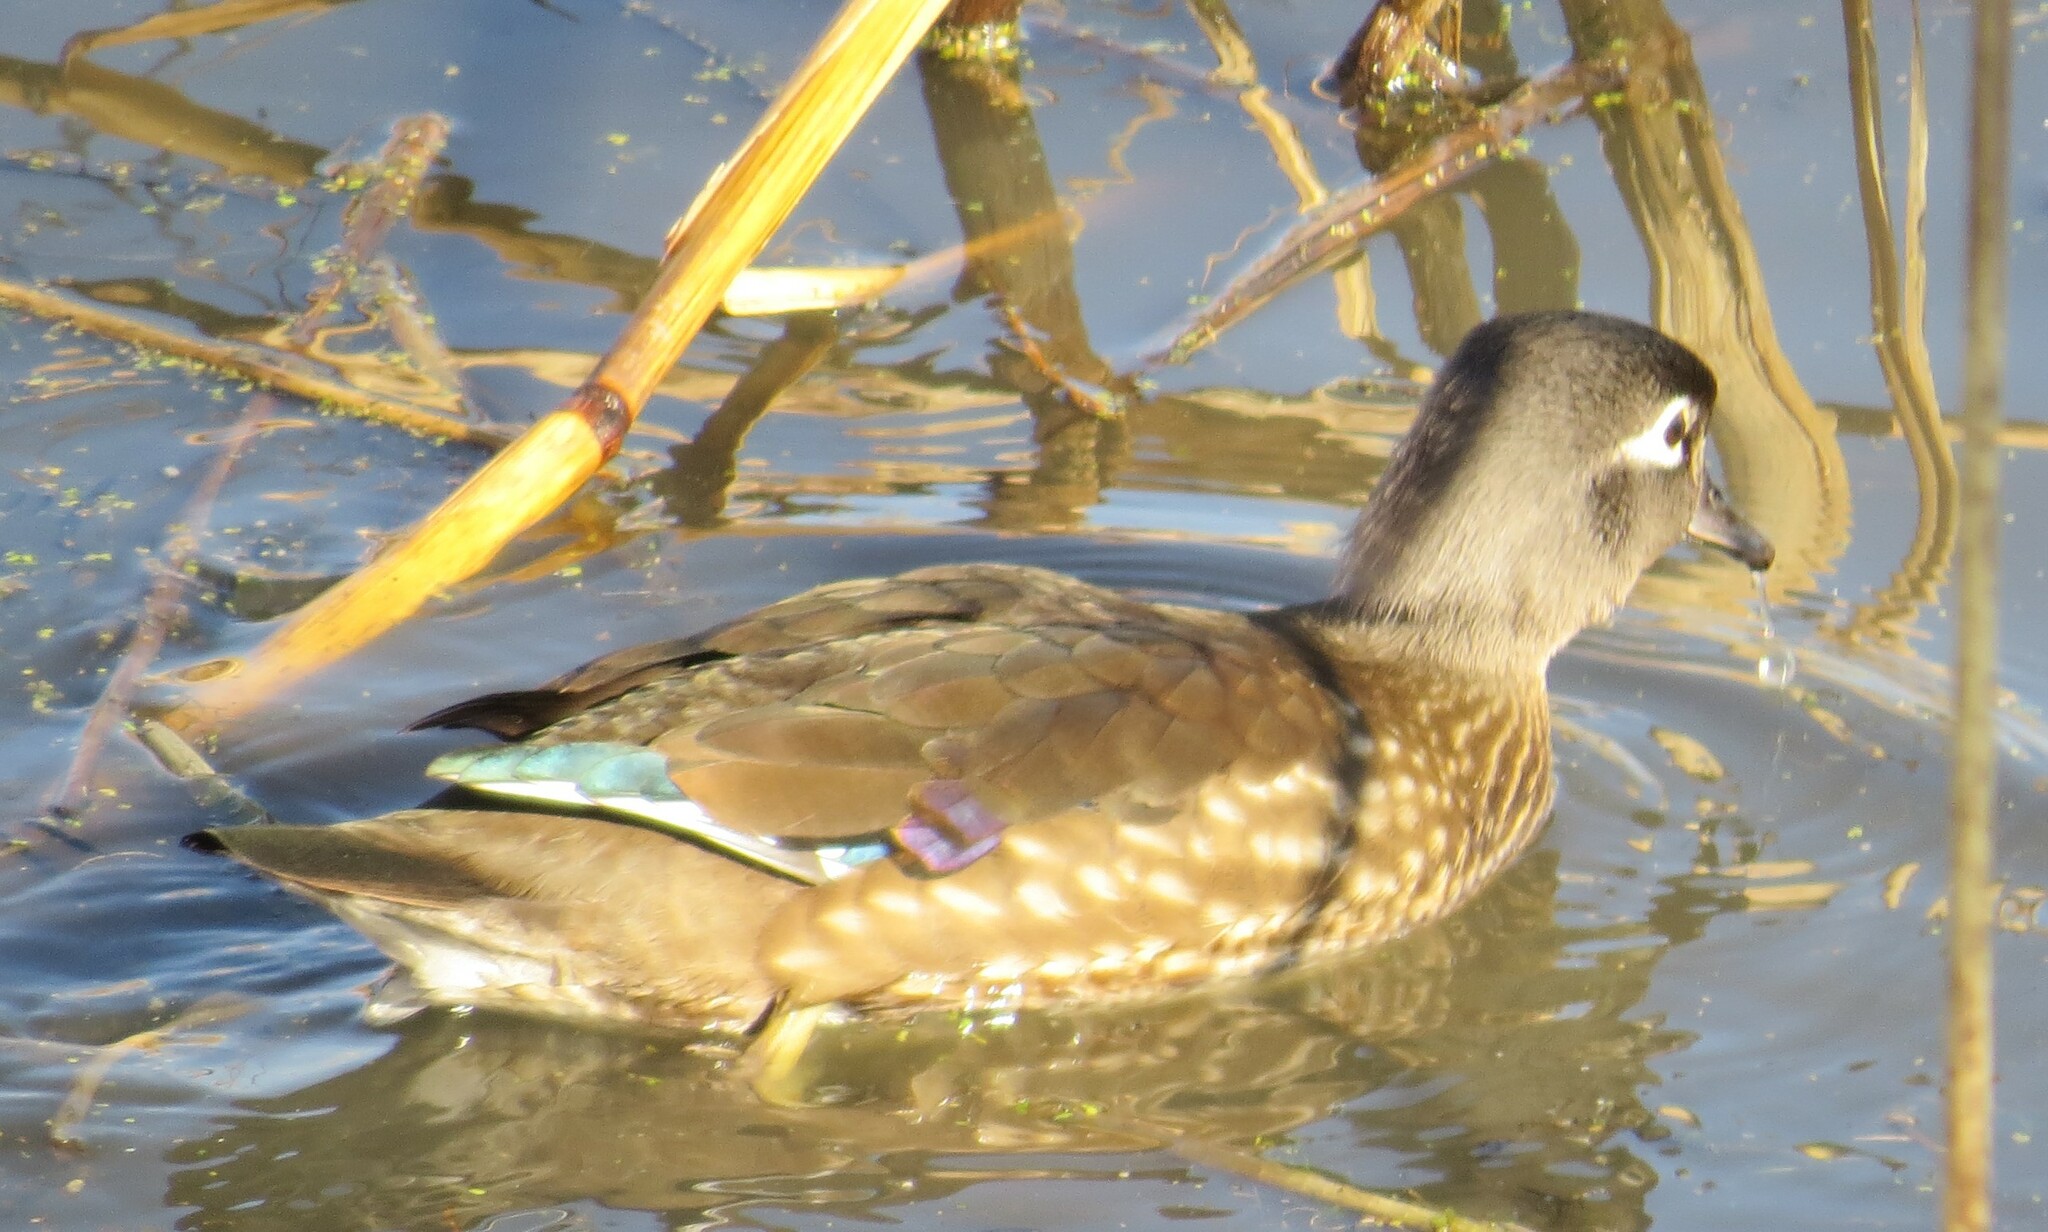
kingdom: Animalia
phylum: Chordata
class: Aves
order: Anseriformes
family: Anatidae
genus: Aix
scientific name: Aix sponsa
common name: Wood duck
